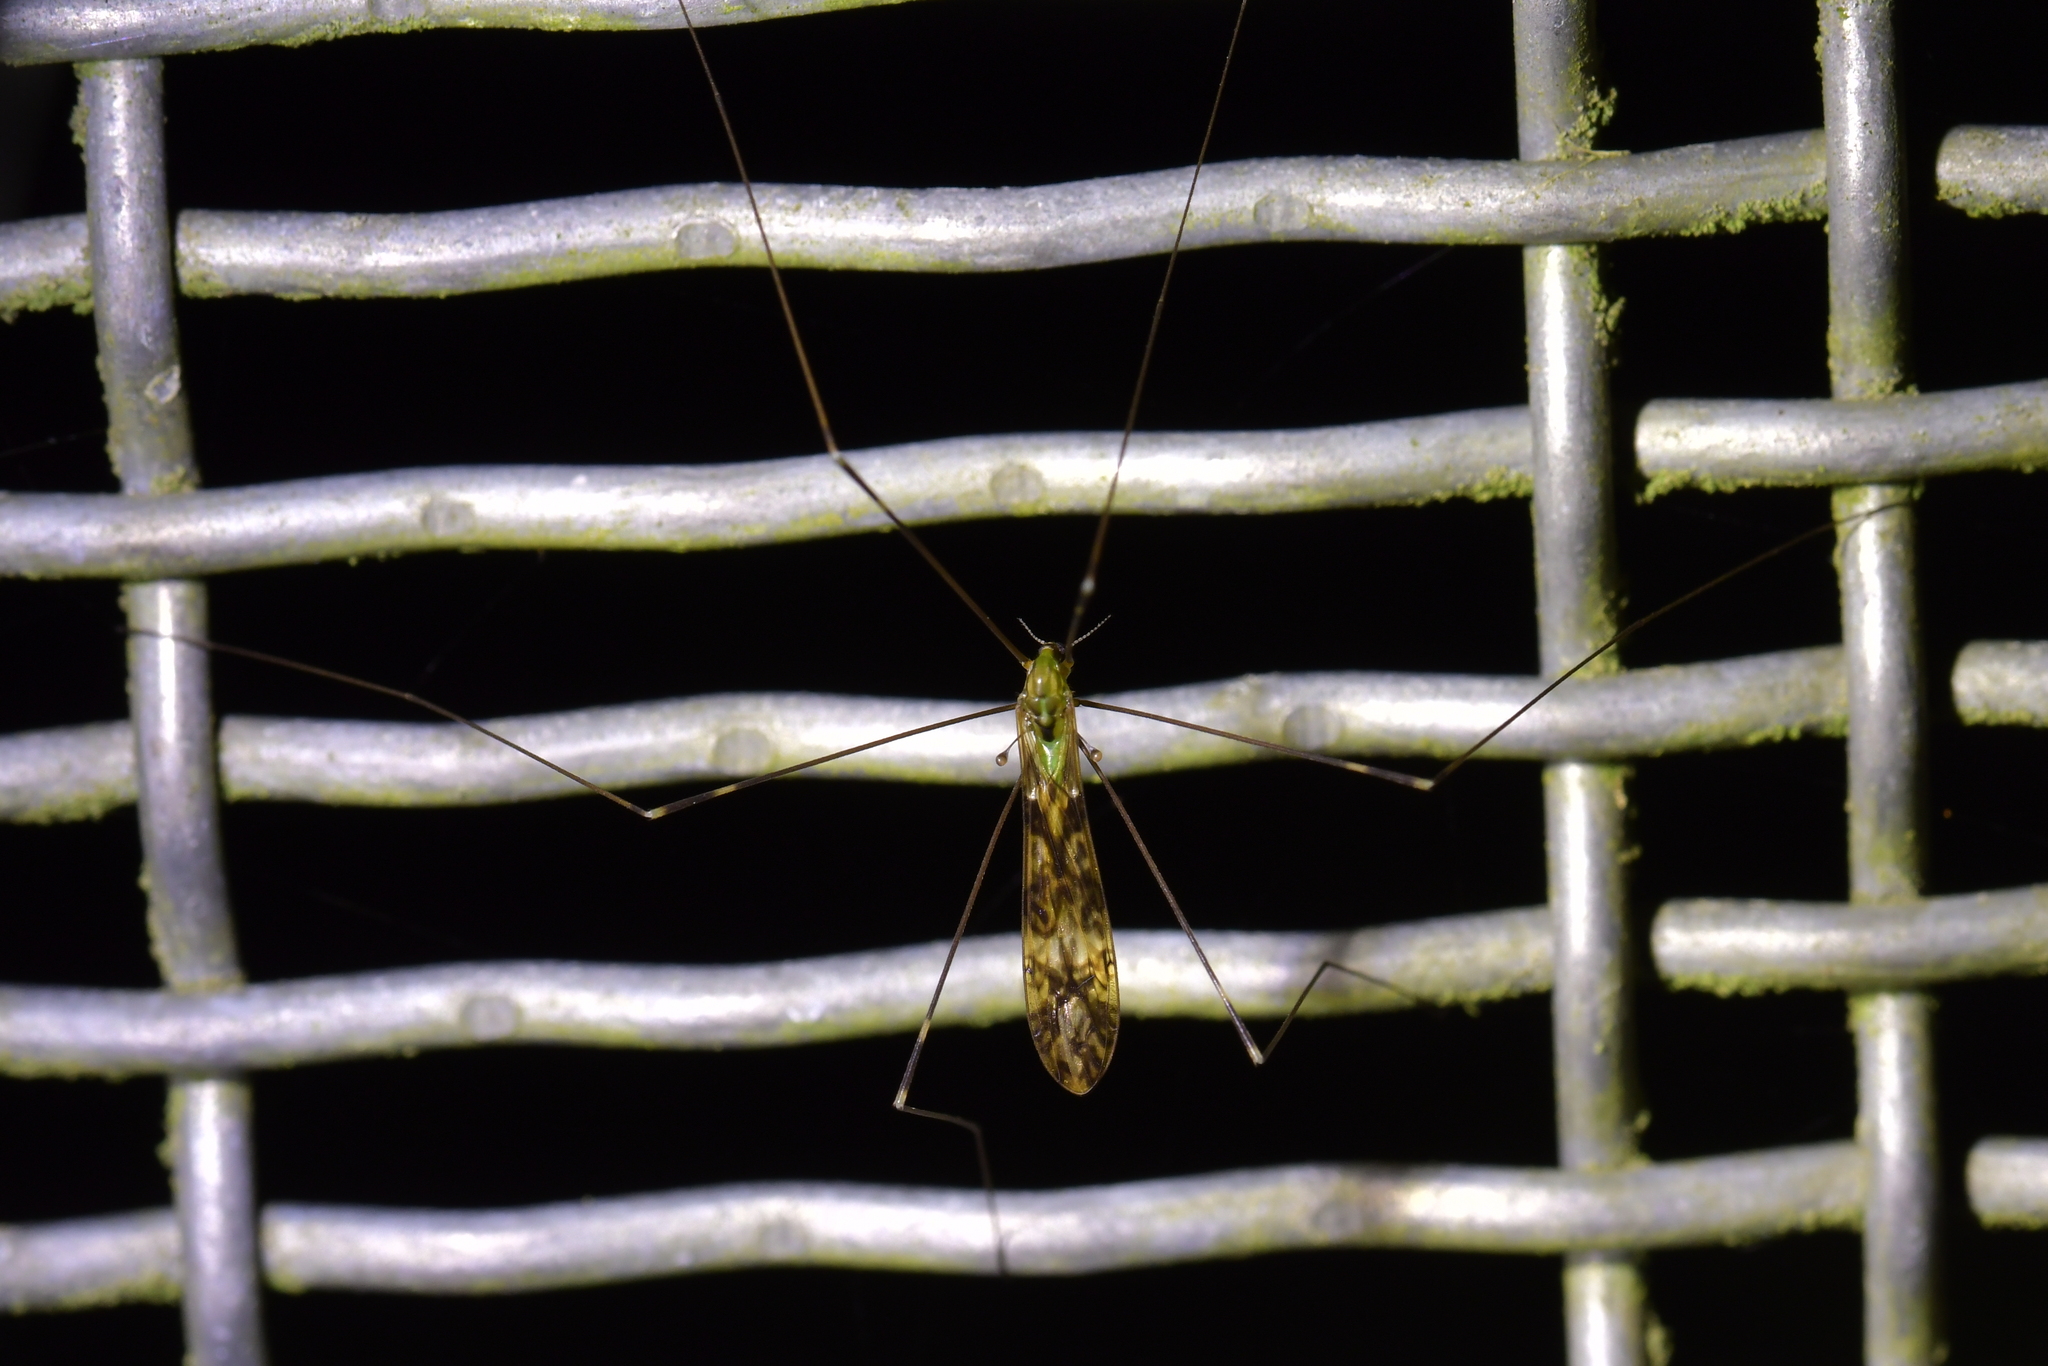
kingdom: Animalia
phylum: Arthropoda
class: Insecta
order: Diptera
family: Limoniidae
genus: Discobola
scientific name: Discobola dohrni
